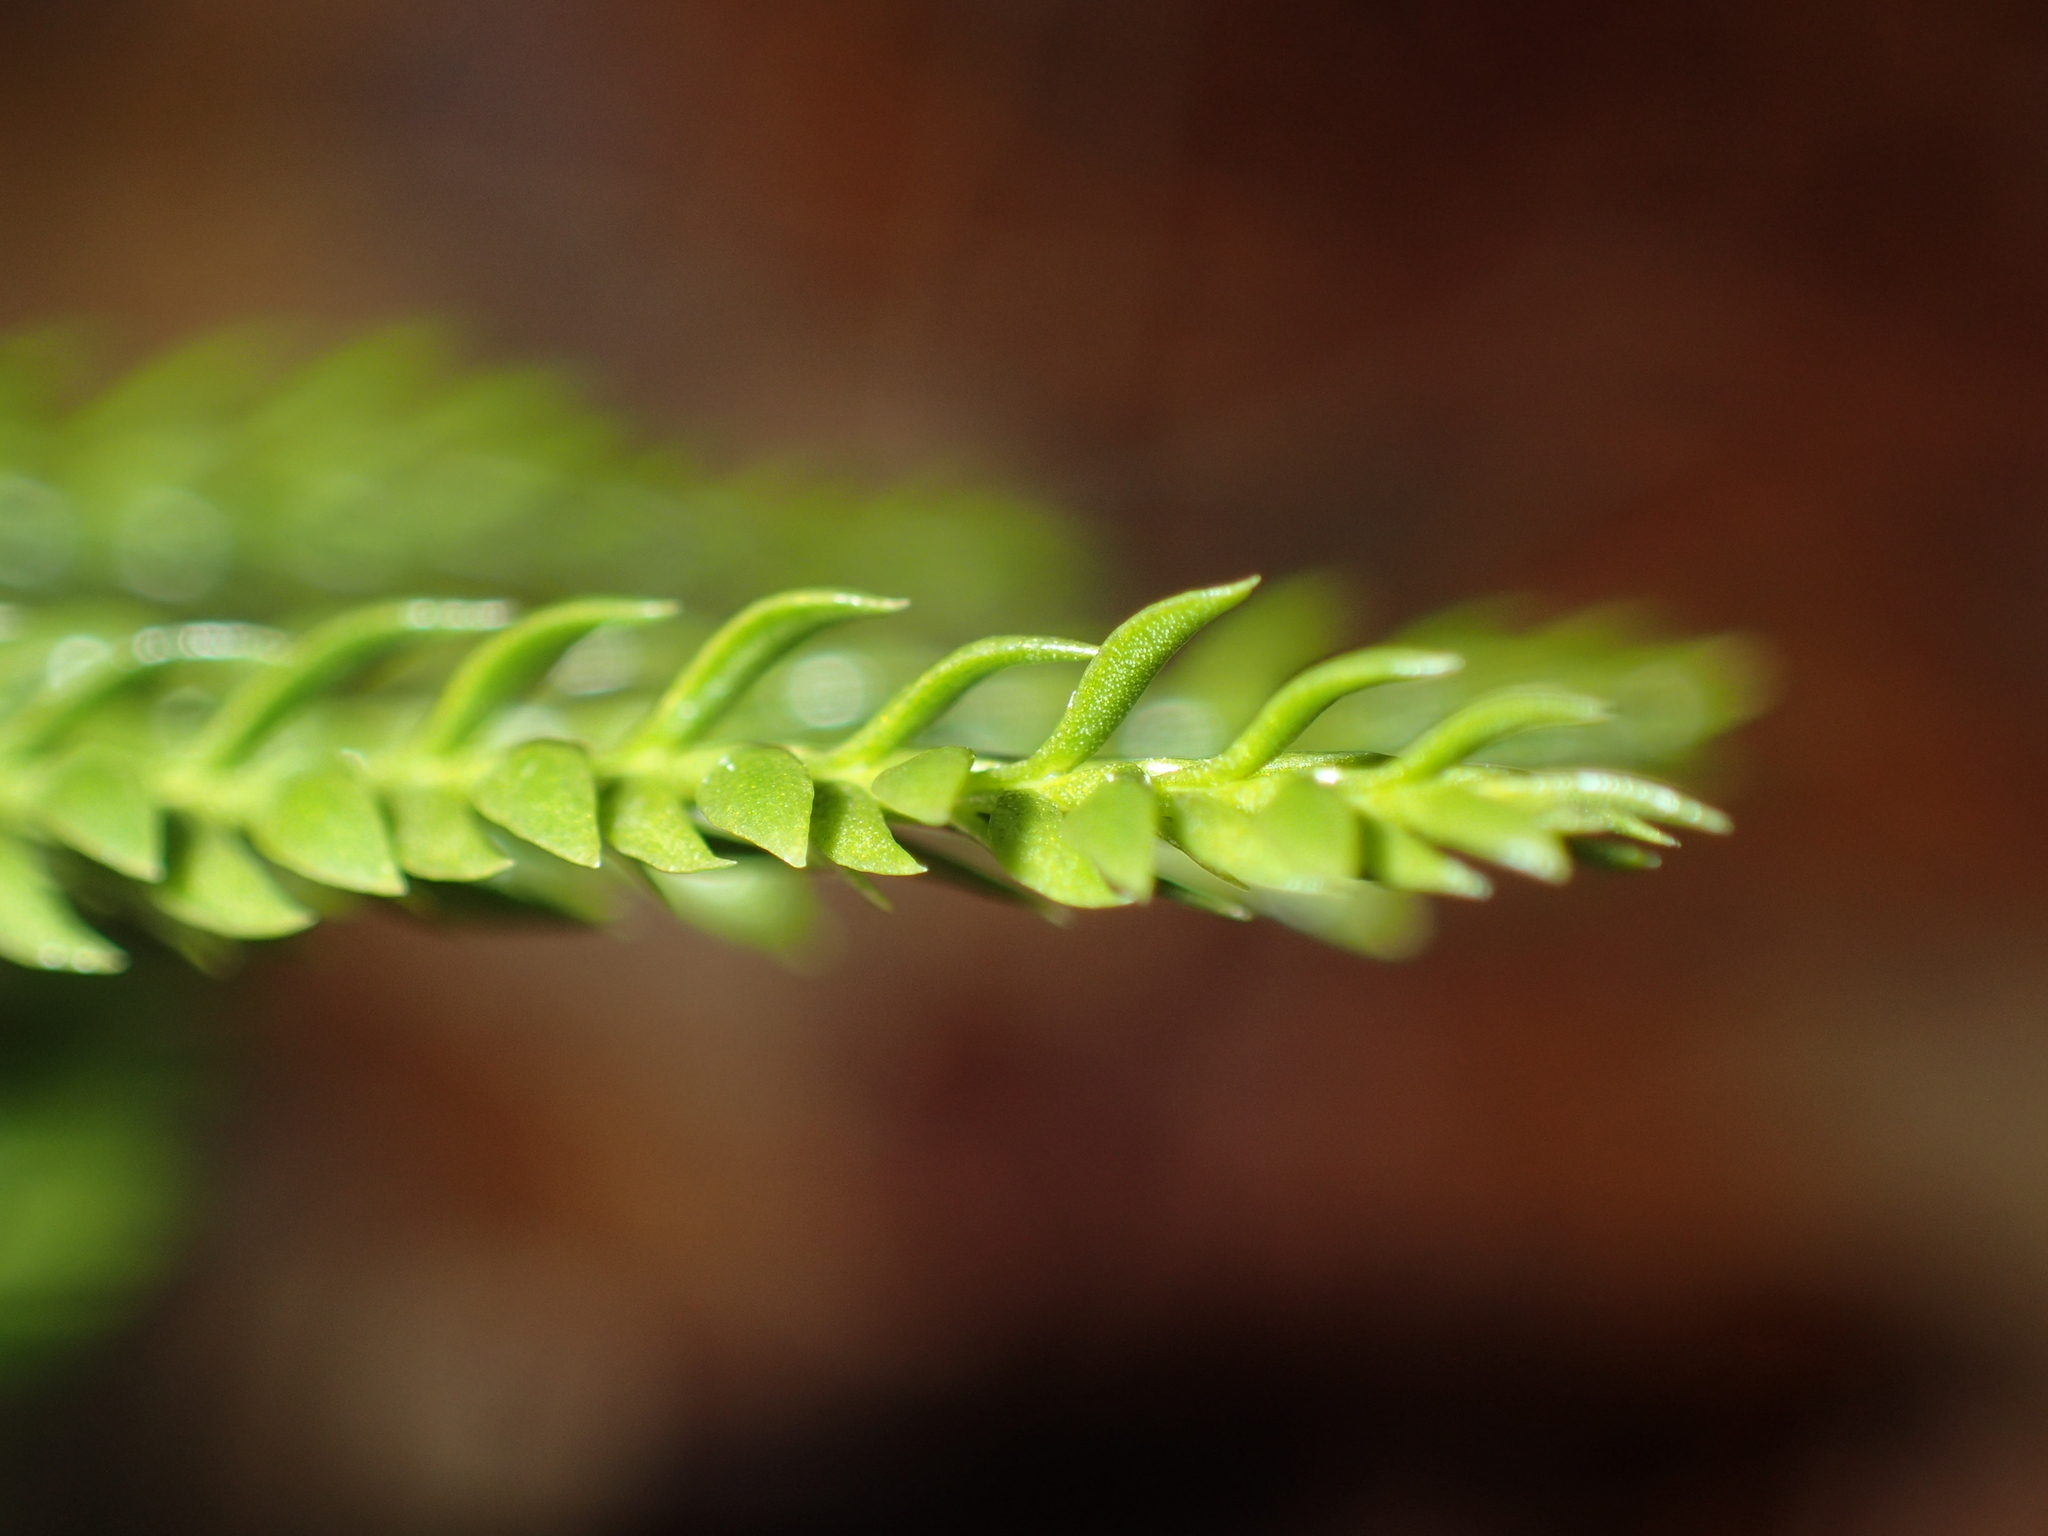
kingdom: Plantae
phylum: Tracheophyta
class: Lycopodiopsida
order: Lycopodiales
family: Lycopodiaceae
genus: Dendrolycopodium
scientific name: Dendrolycopodium obscurum
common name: Common ground-pine
